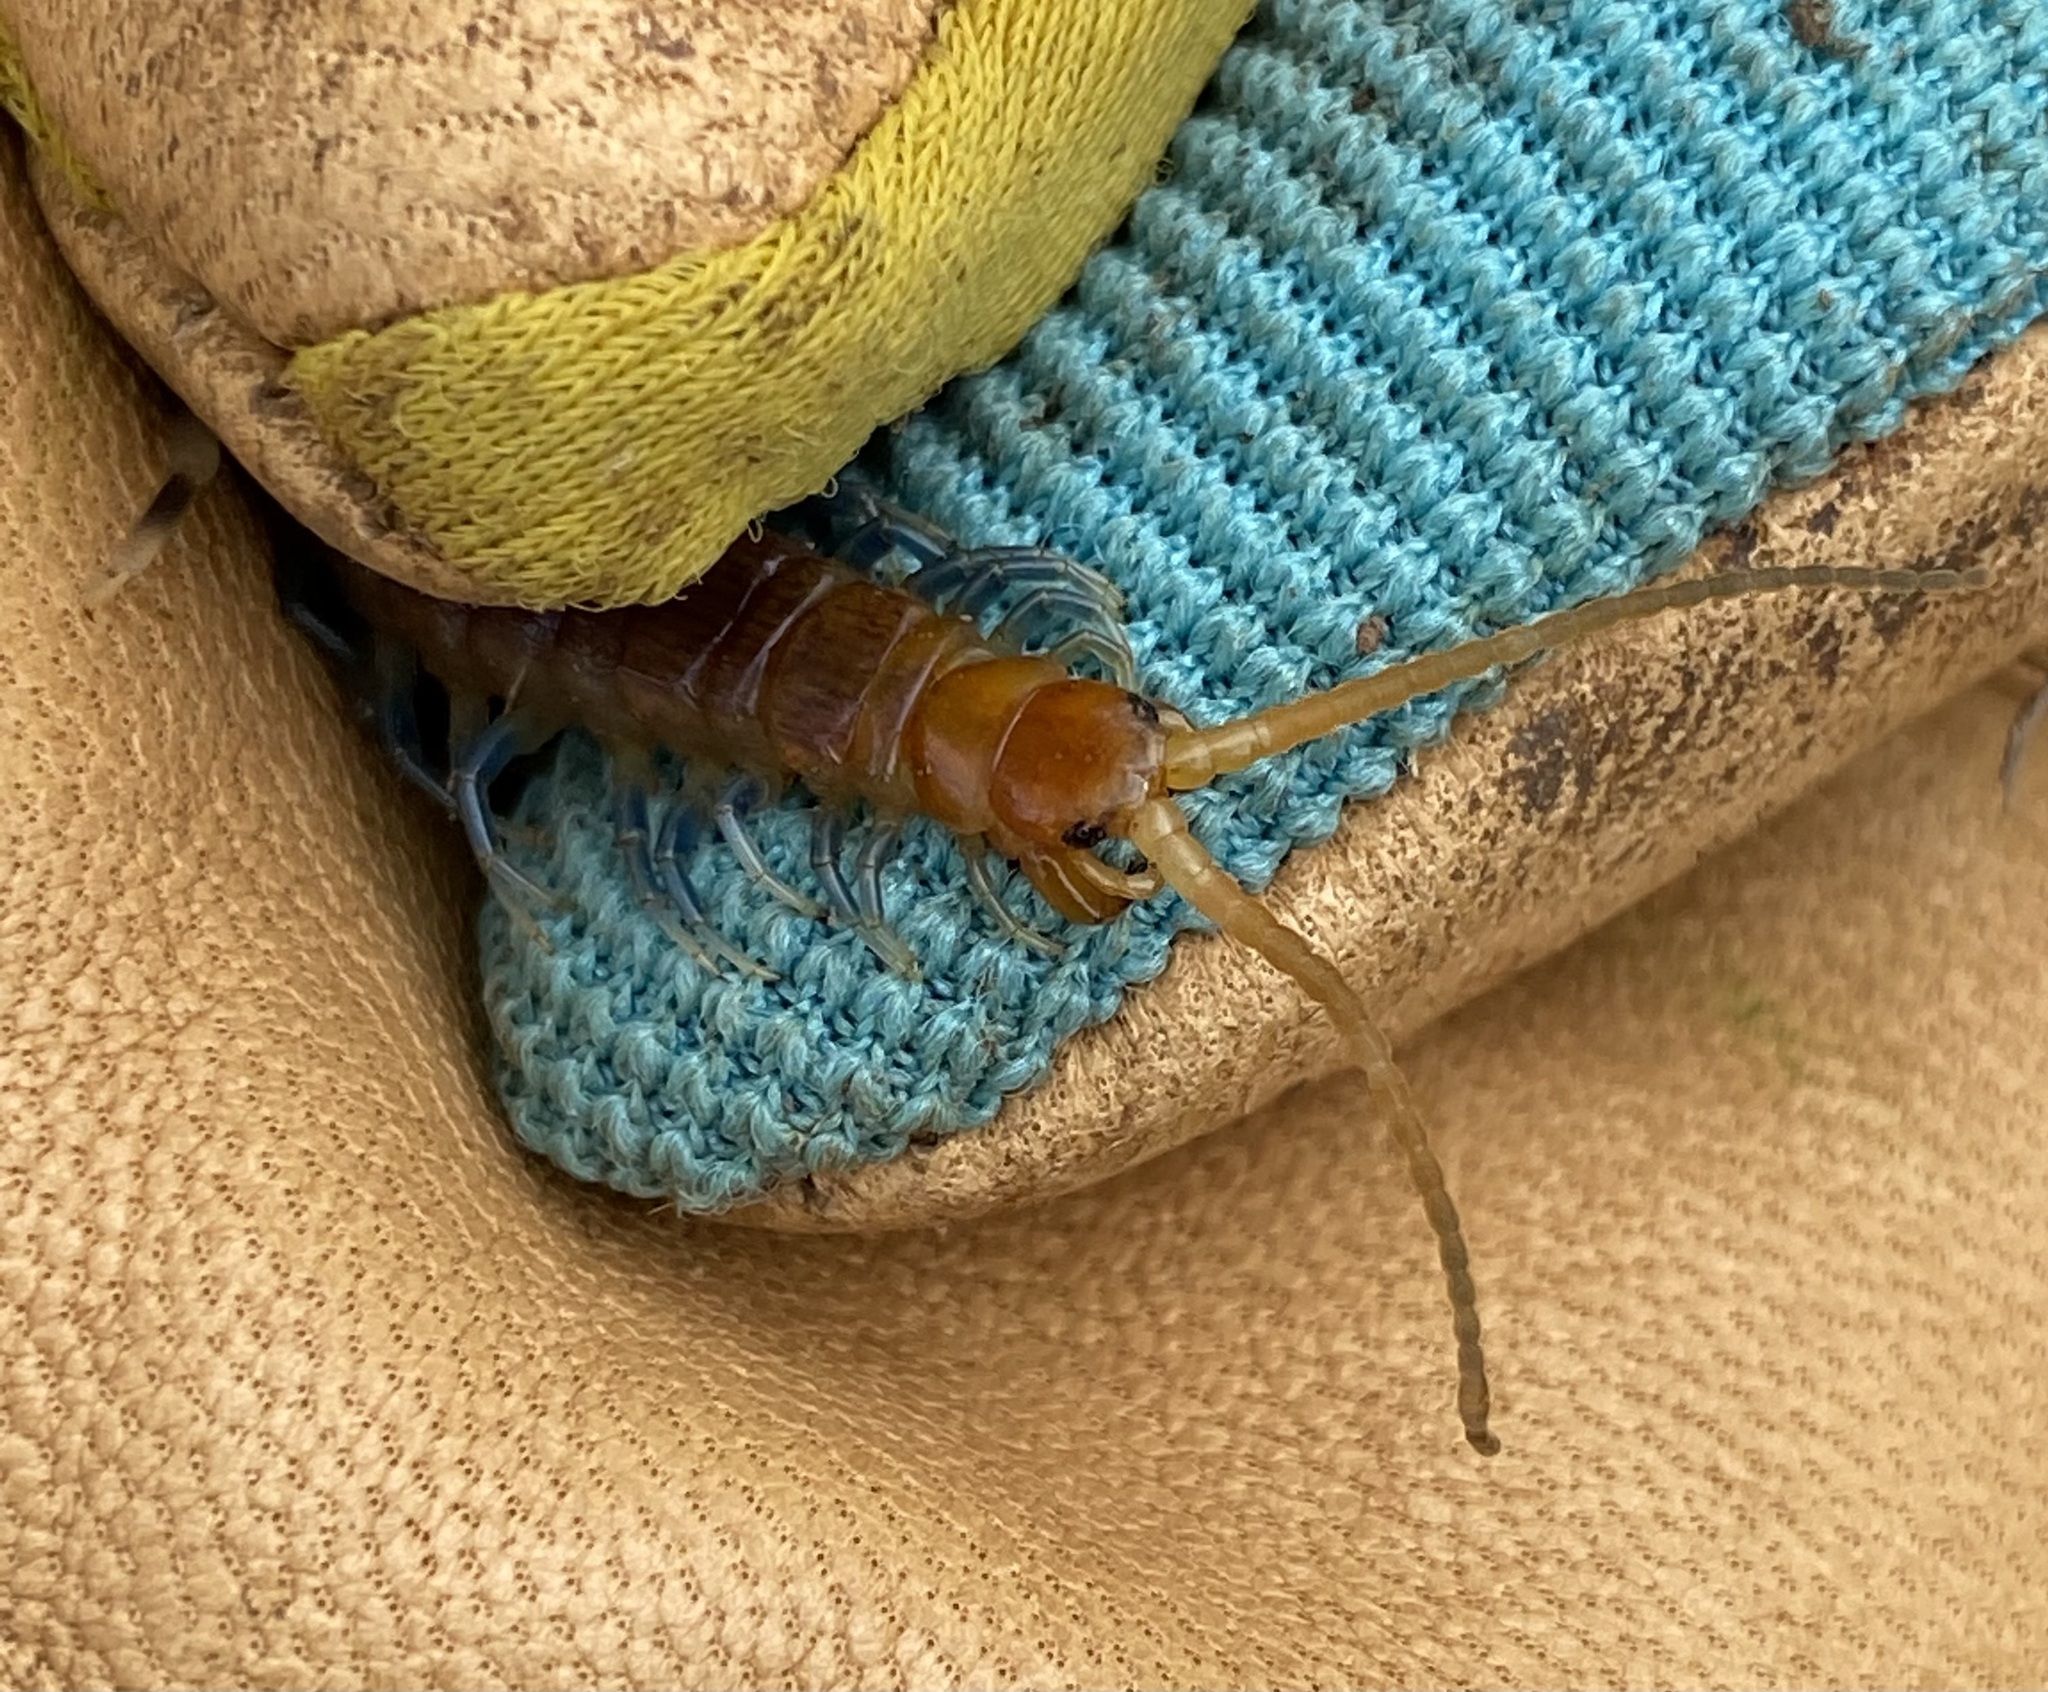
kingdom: Animalia
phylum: Arthropoda
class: Chilopoda
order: Scolopendromorpha
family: Scolopendridae
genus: Otostigmus
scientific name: Otostigmus scaber
